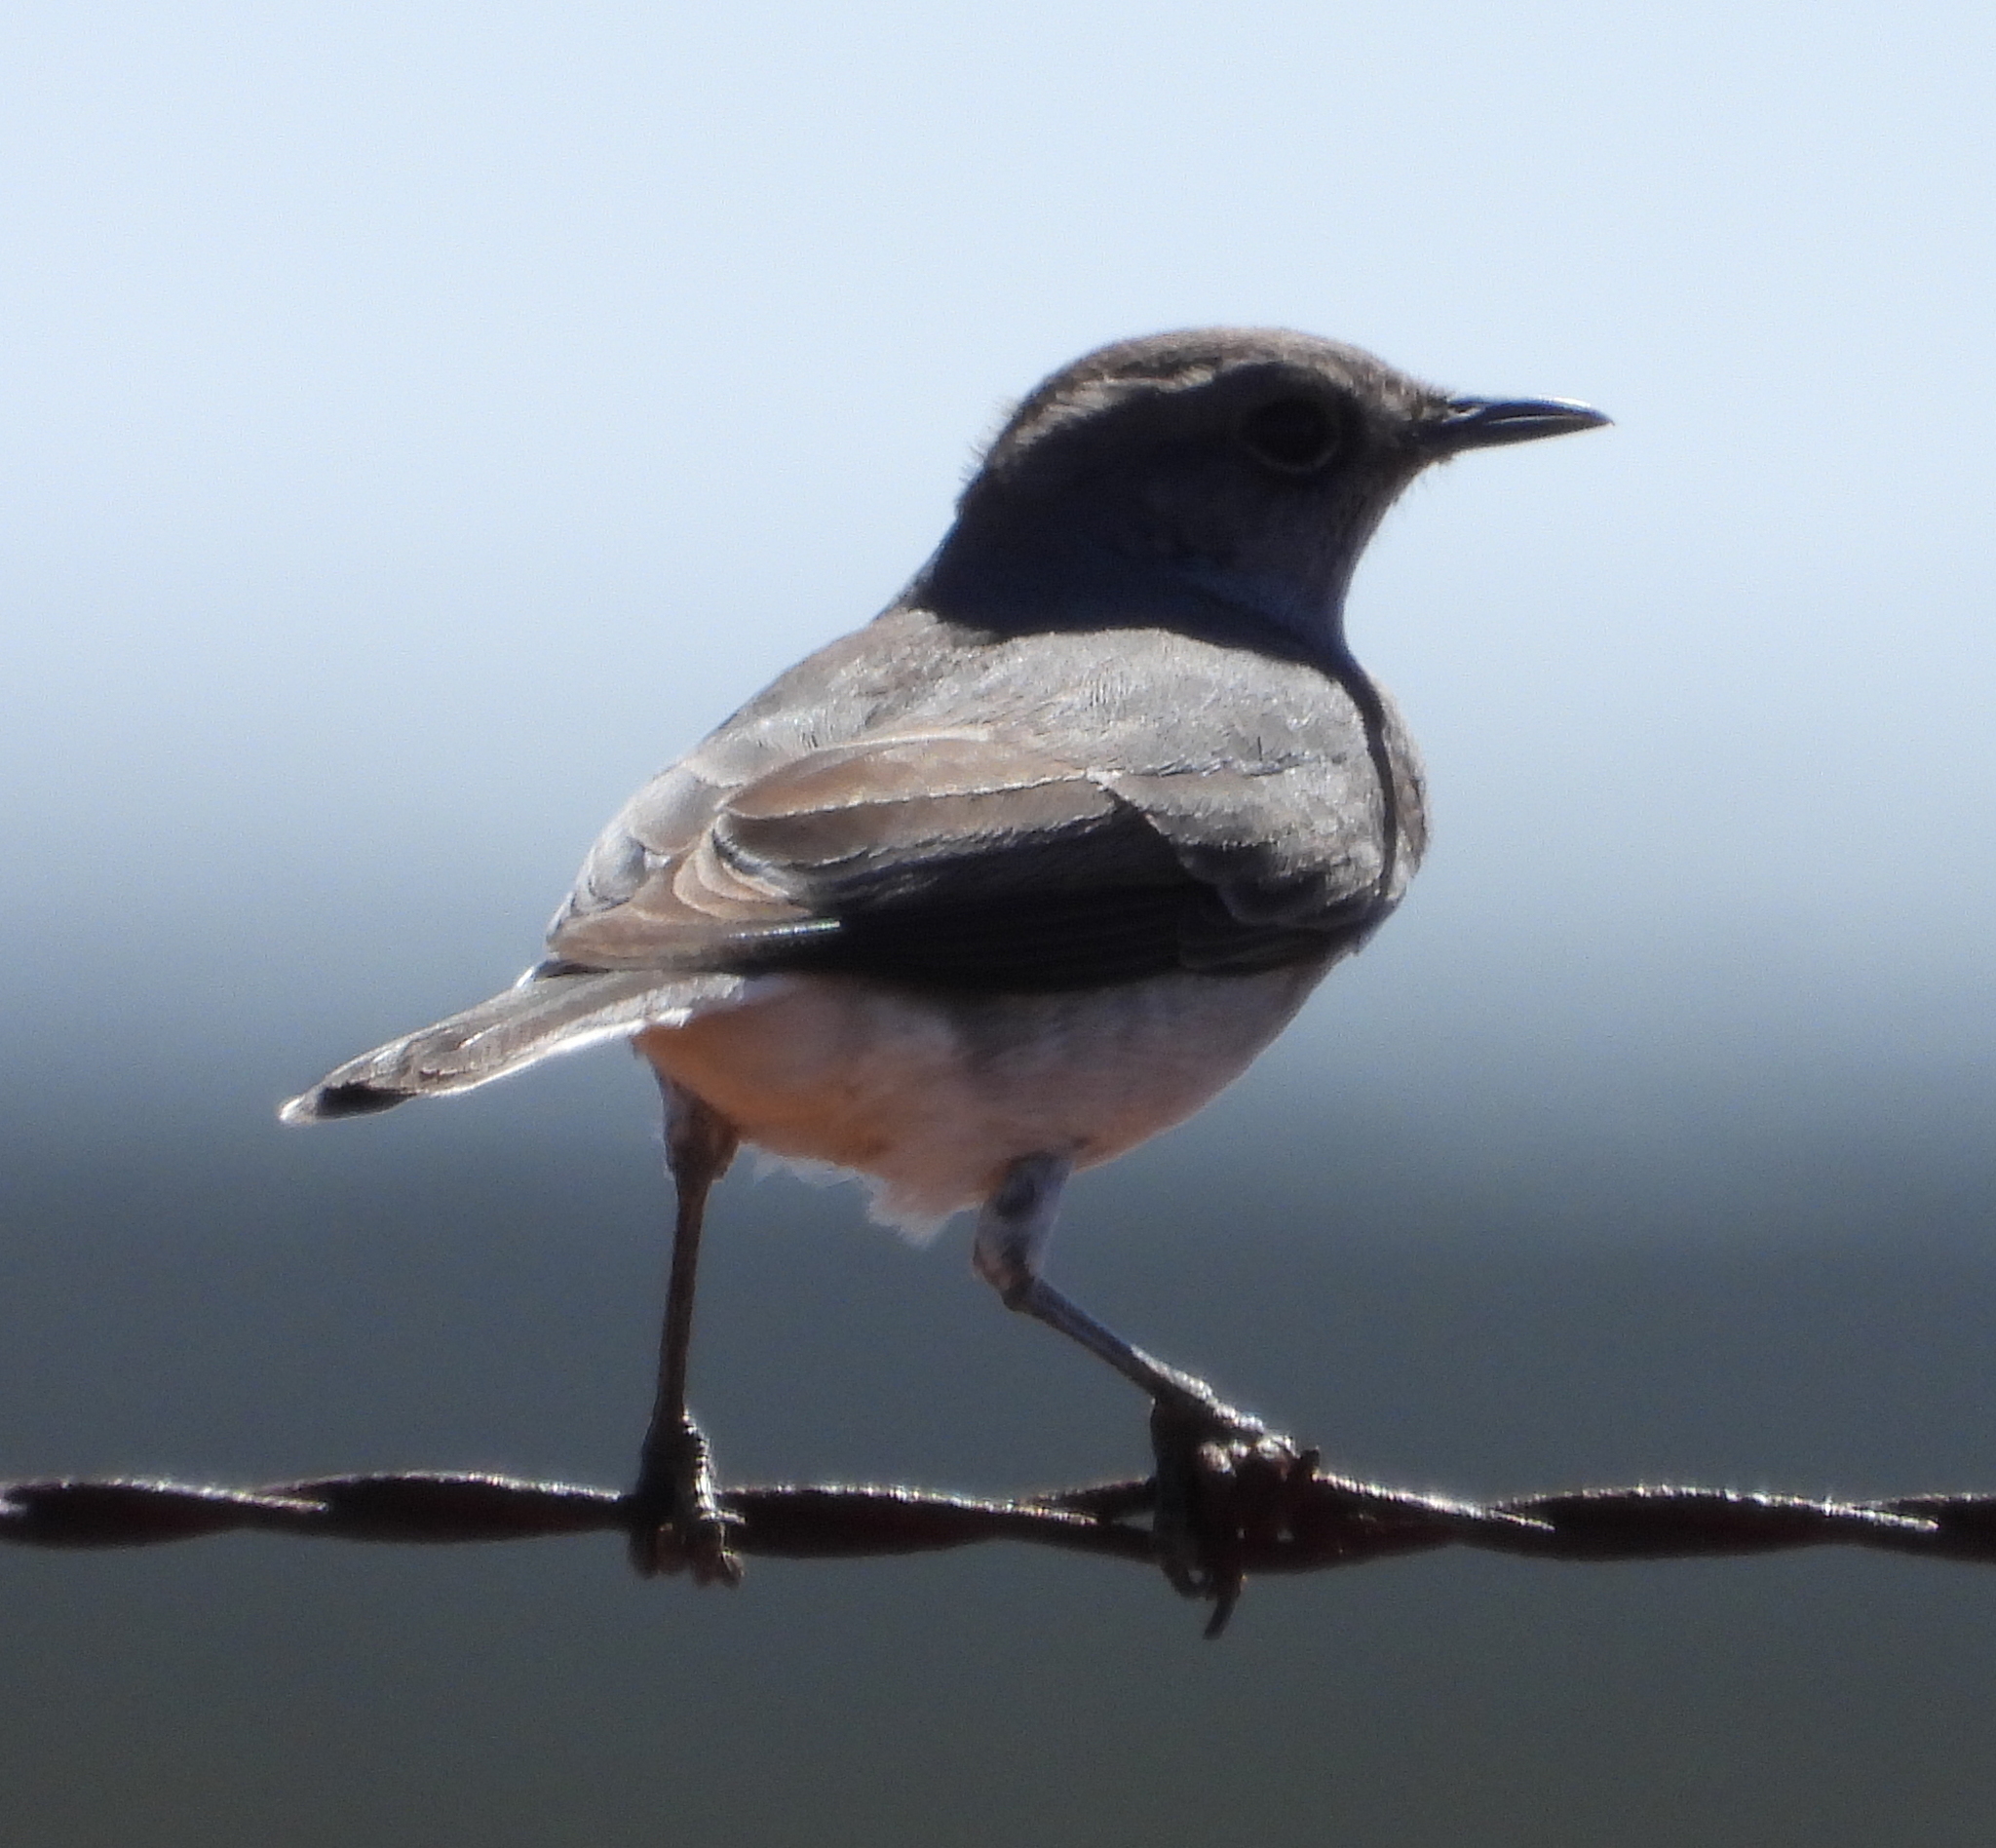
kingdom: Animalia
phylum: Chordata
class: Aves
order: Passeriformes
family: Muscicapidae
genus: Emarginata
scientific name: Emarginata schlegelii
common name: Karoo chat
